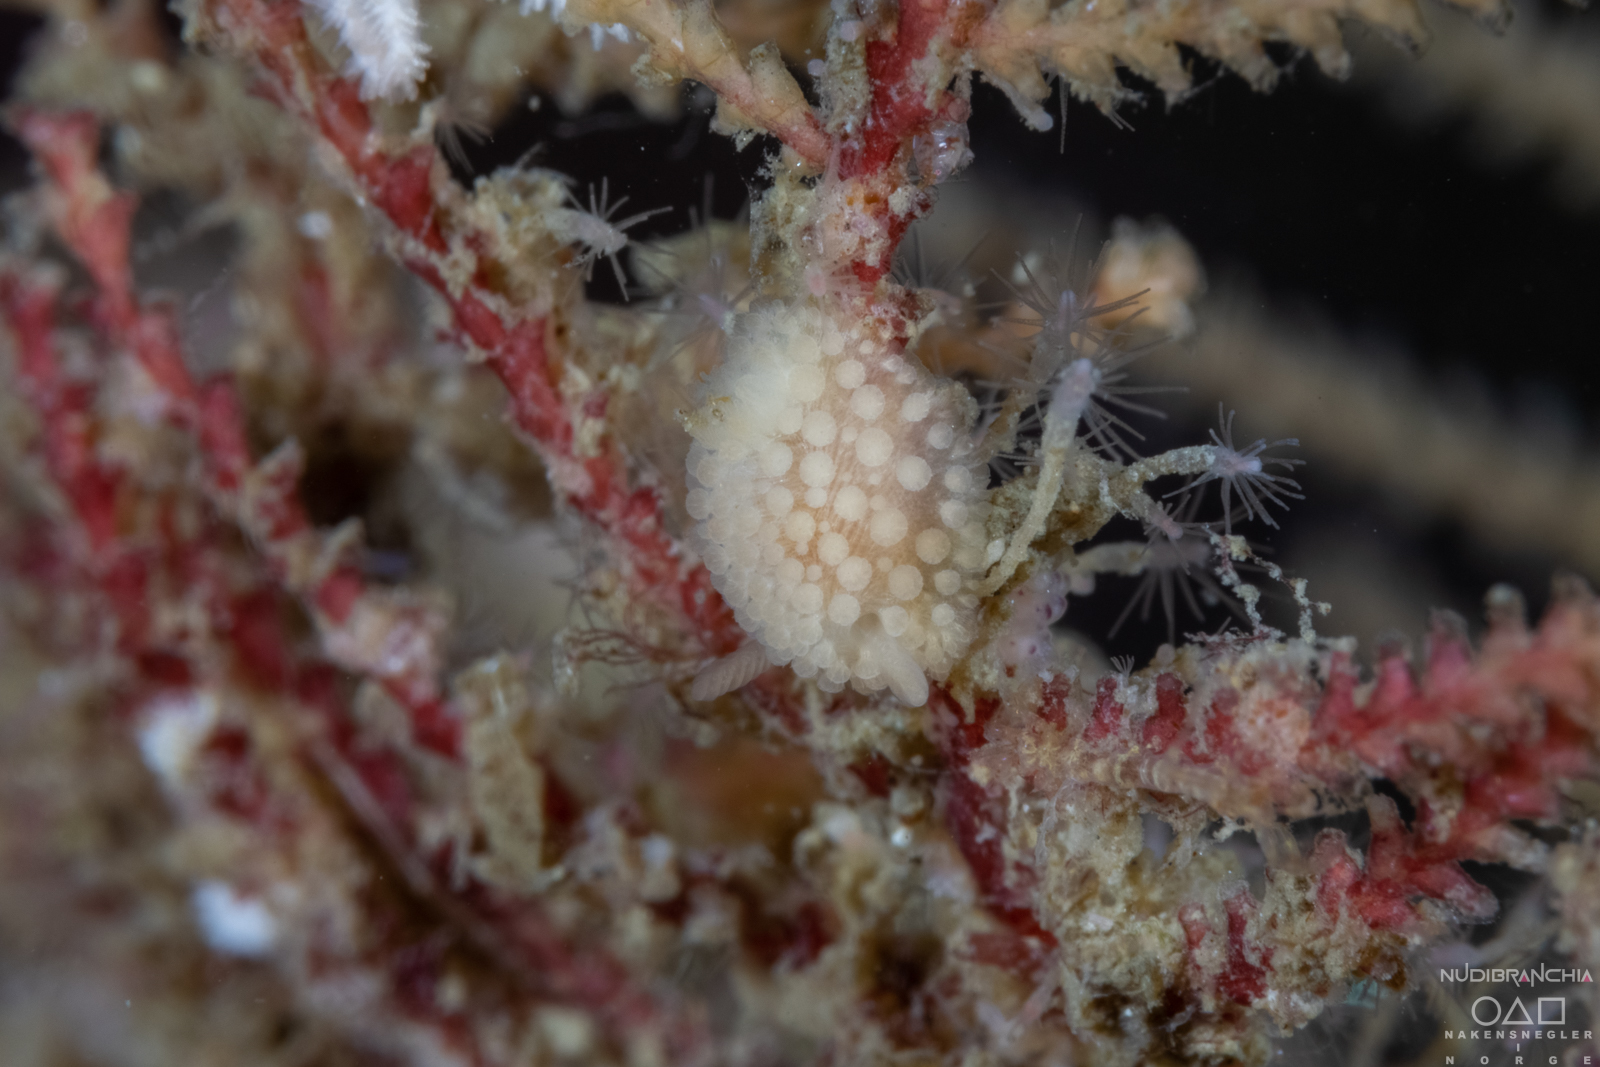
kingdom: Animalia
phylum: Mollusca
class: Gastropoda
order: Nudibranchia
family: Onchidorididae
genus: Onchidoris
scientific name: Onchidoris muricata
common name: Rough doris
